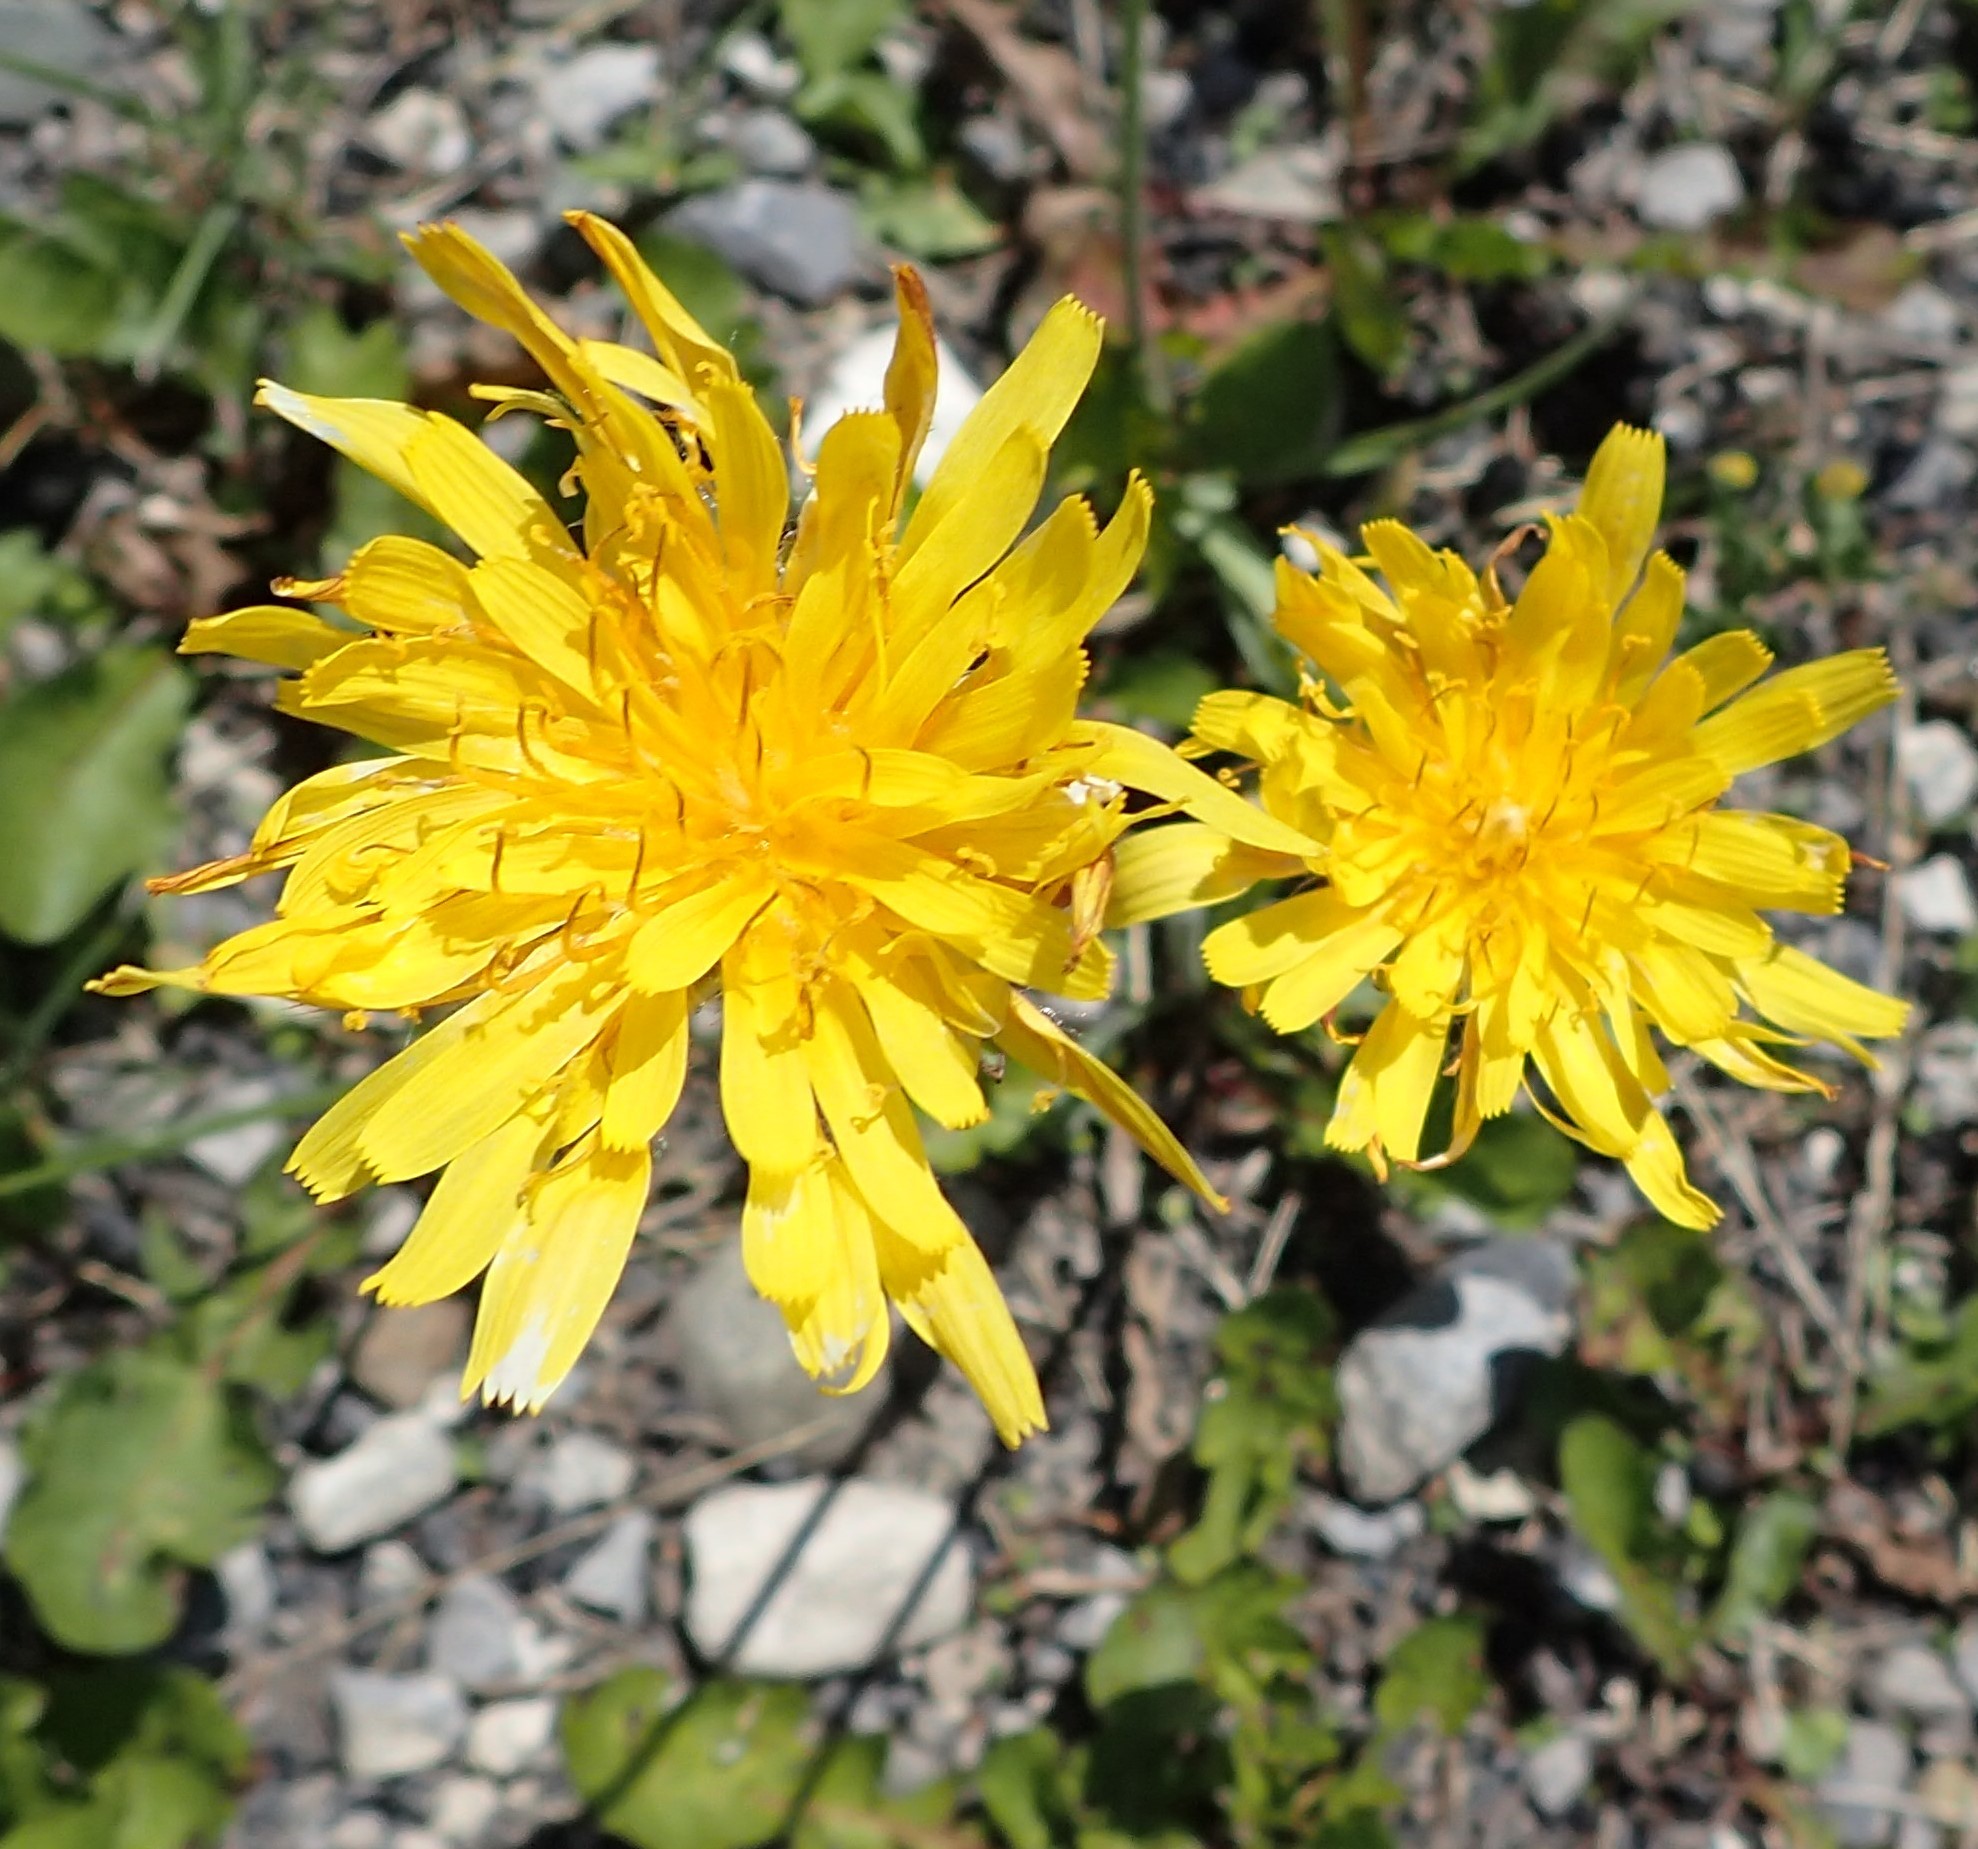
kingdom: Plantae
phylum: Tracheophyta
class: Magnoliopsida
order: Asterales
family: Asteraceae
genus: Agoseris
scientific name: Agoseris glauca
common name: Prairie agoseris
